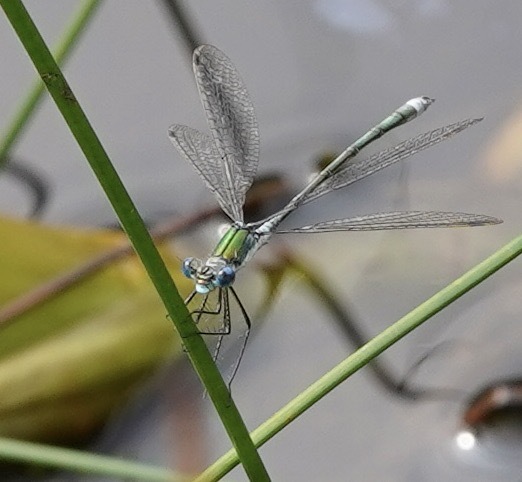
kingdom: Animalia
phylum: Arthropoda
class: Insecta
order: Odonata
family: Lestidae
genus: Lestes
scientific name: Lestes sponsa
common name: Common spreadwing
